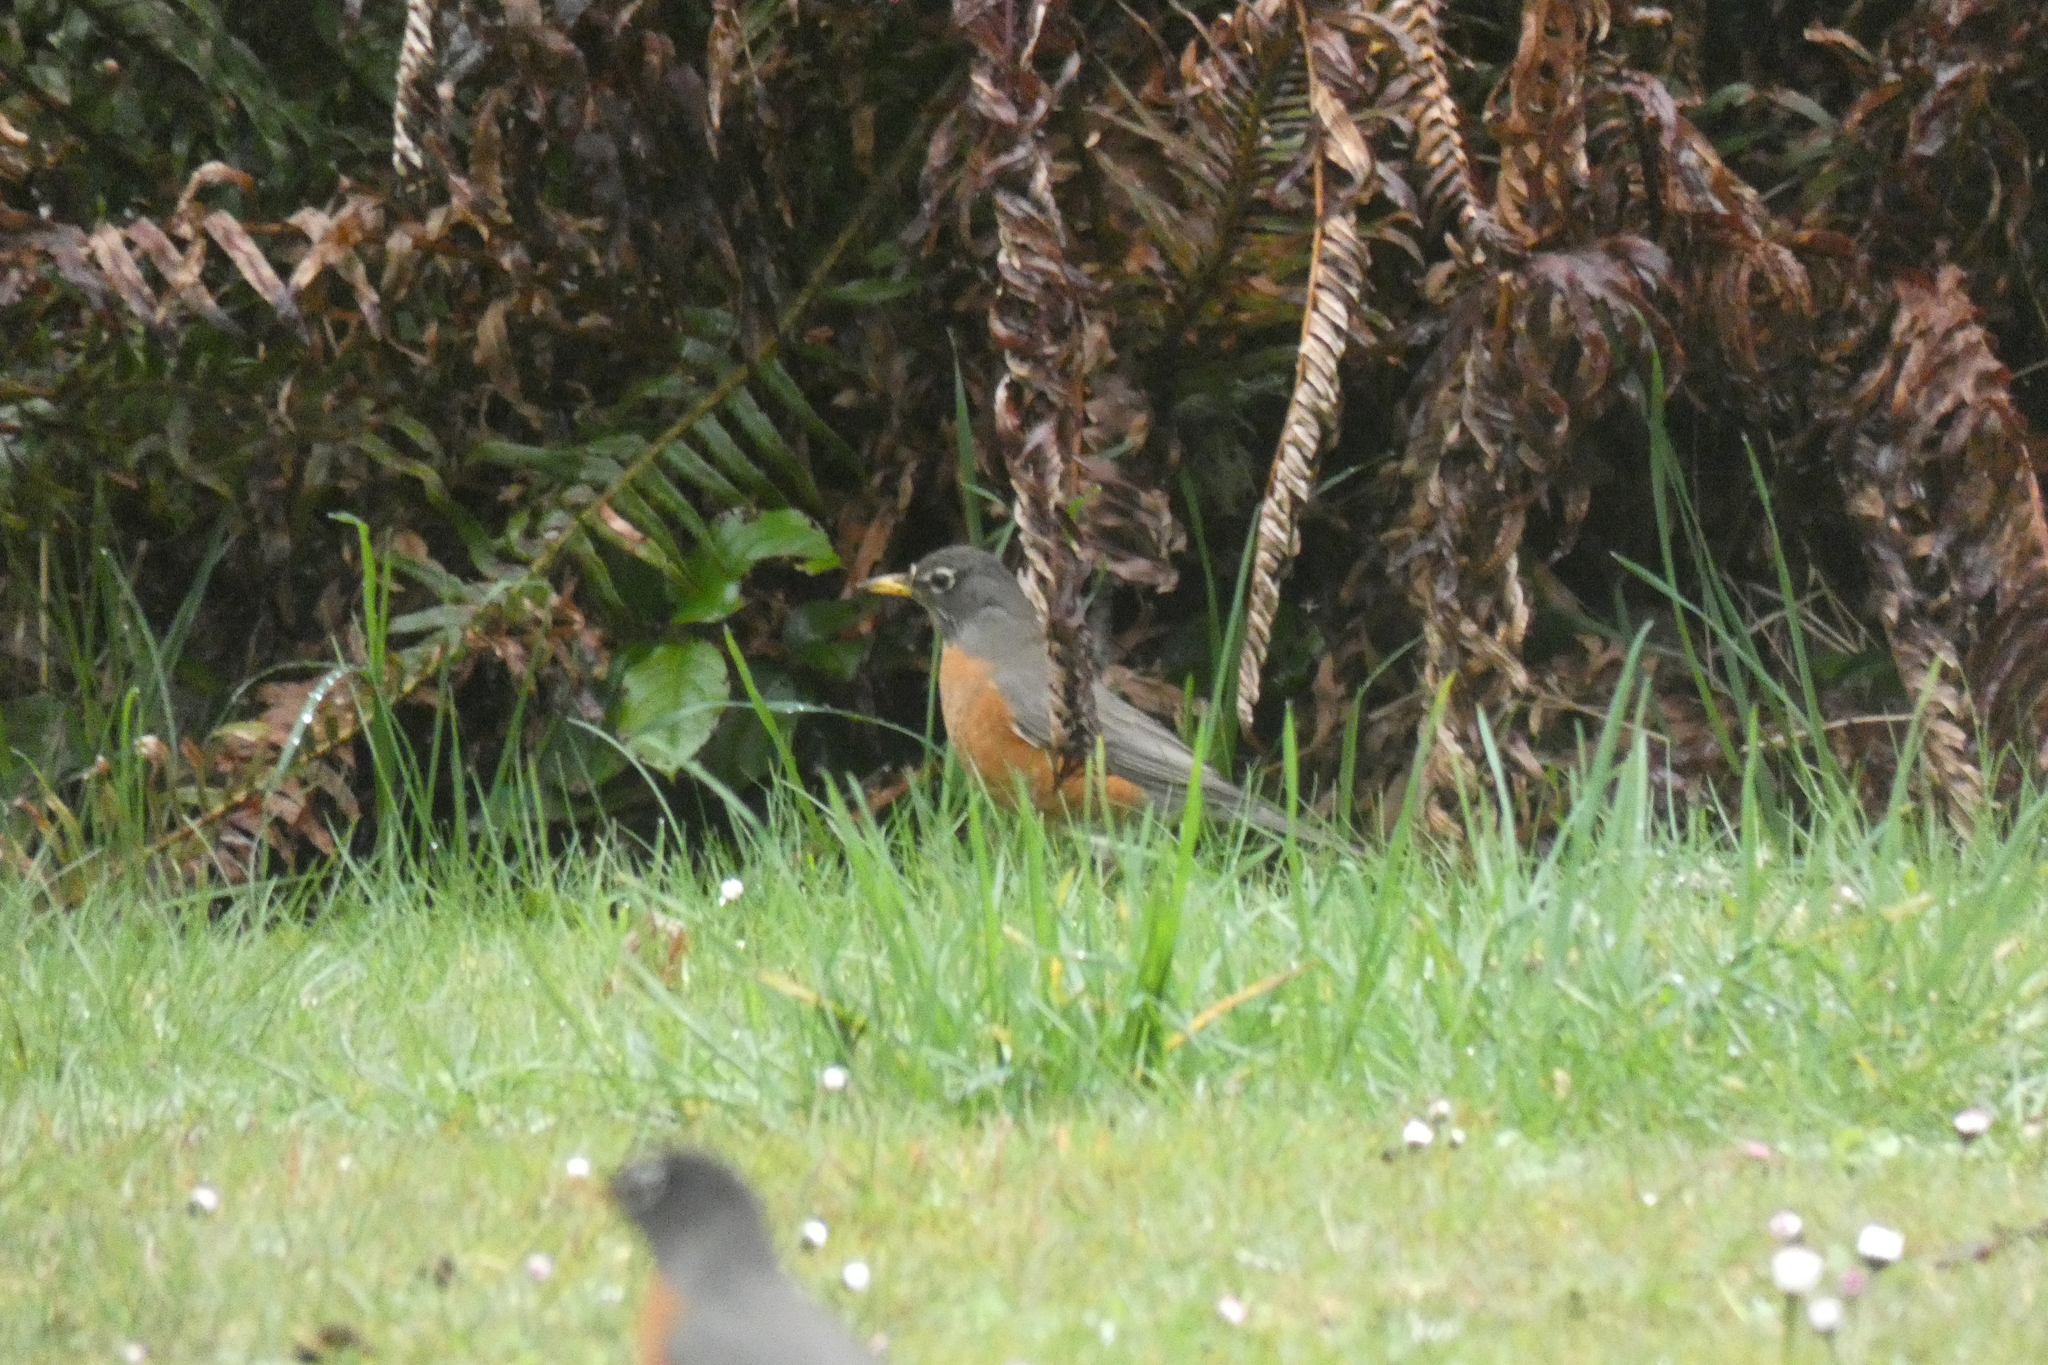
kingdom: Animalia
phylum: Chordata
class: Aves
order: Passeriformes
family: Turdidae
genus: Turdus
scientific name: Turdus migratorius
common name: American robin
